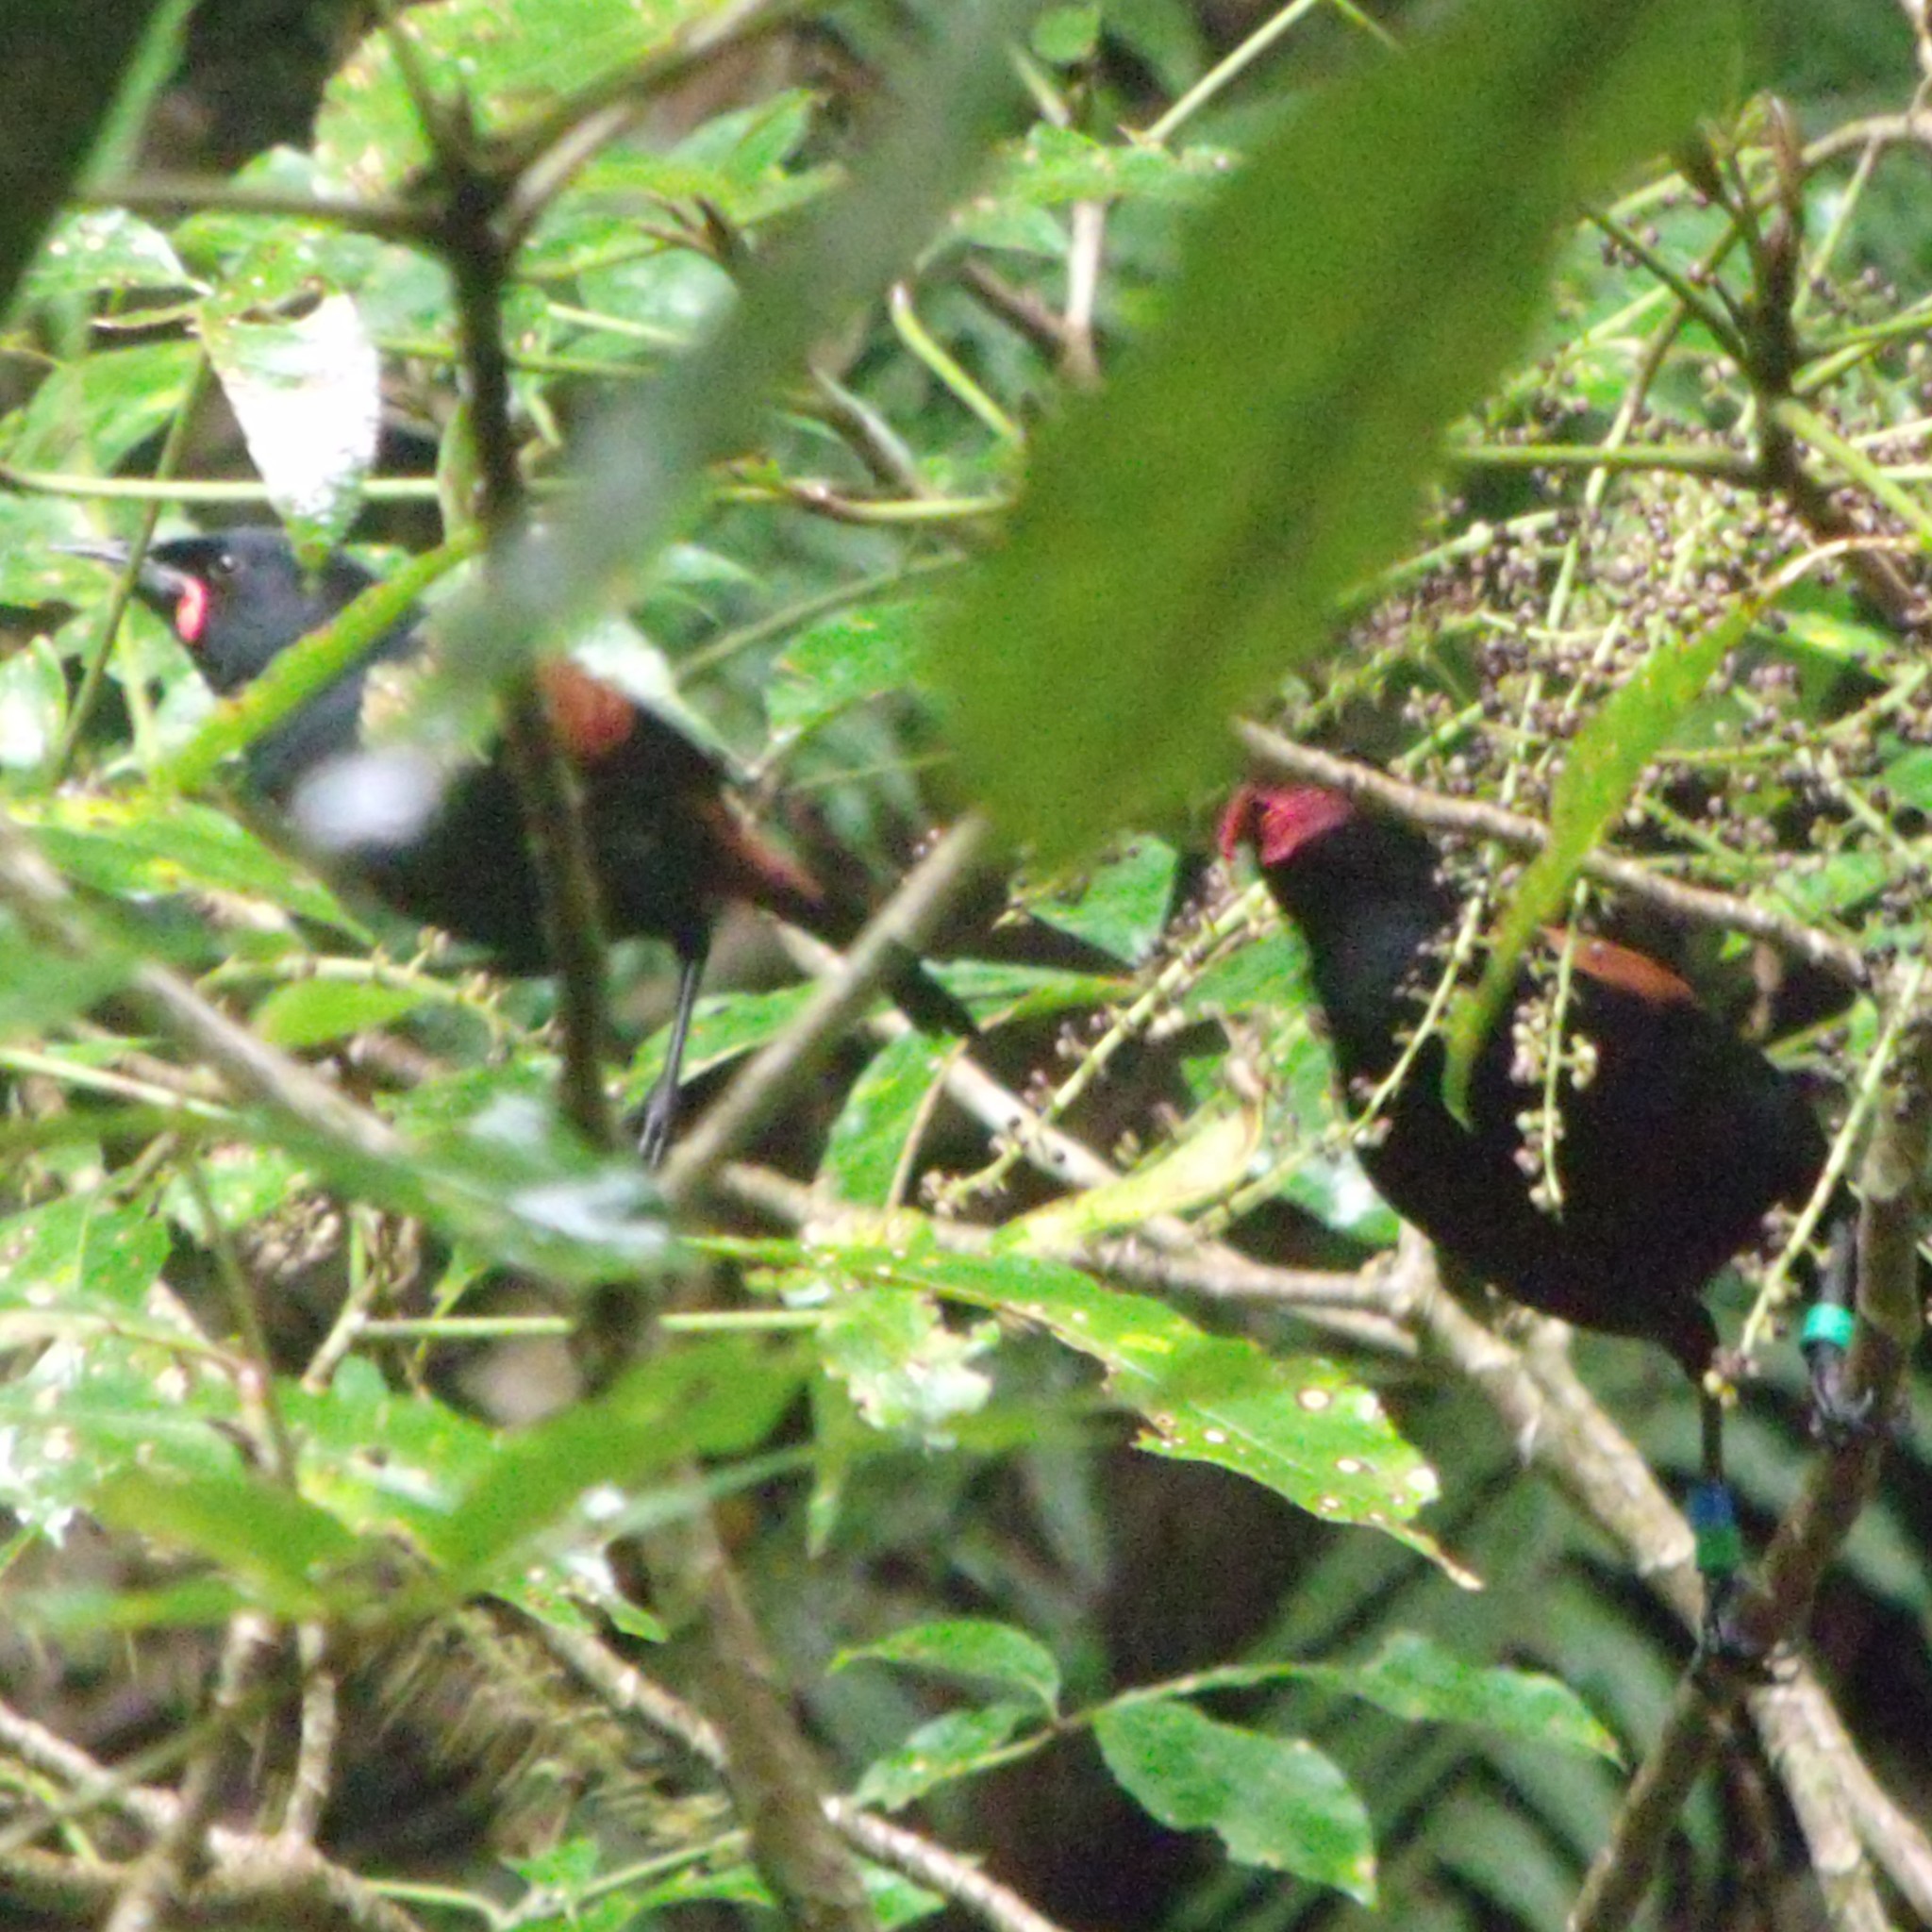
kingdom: Animalia
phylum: Chordata
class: Aves
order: Passeriformes
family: Callaeatidae
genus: Philesturnus
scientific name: Philesturnus carunculatus
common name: South island saddleback
